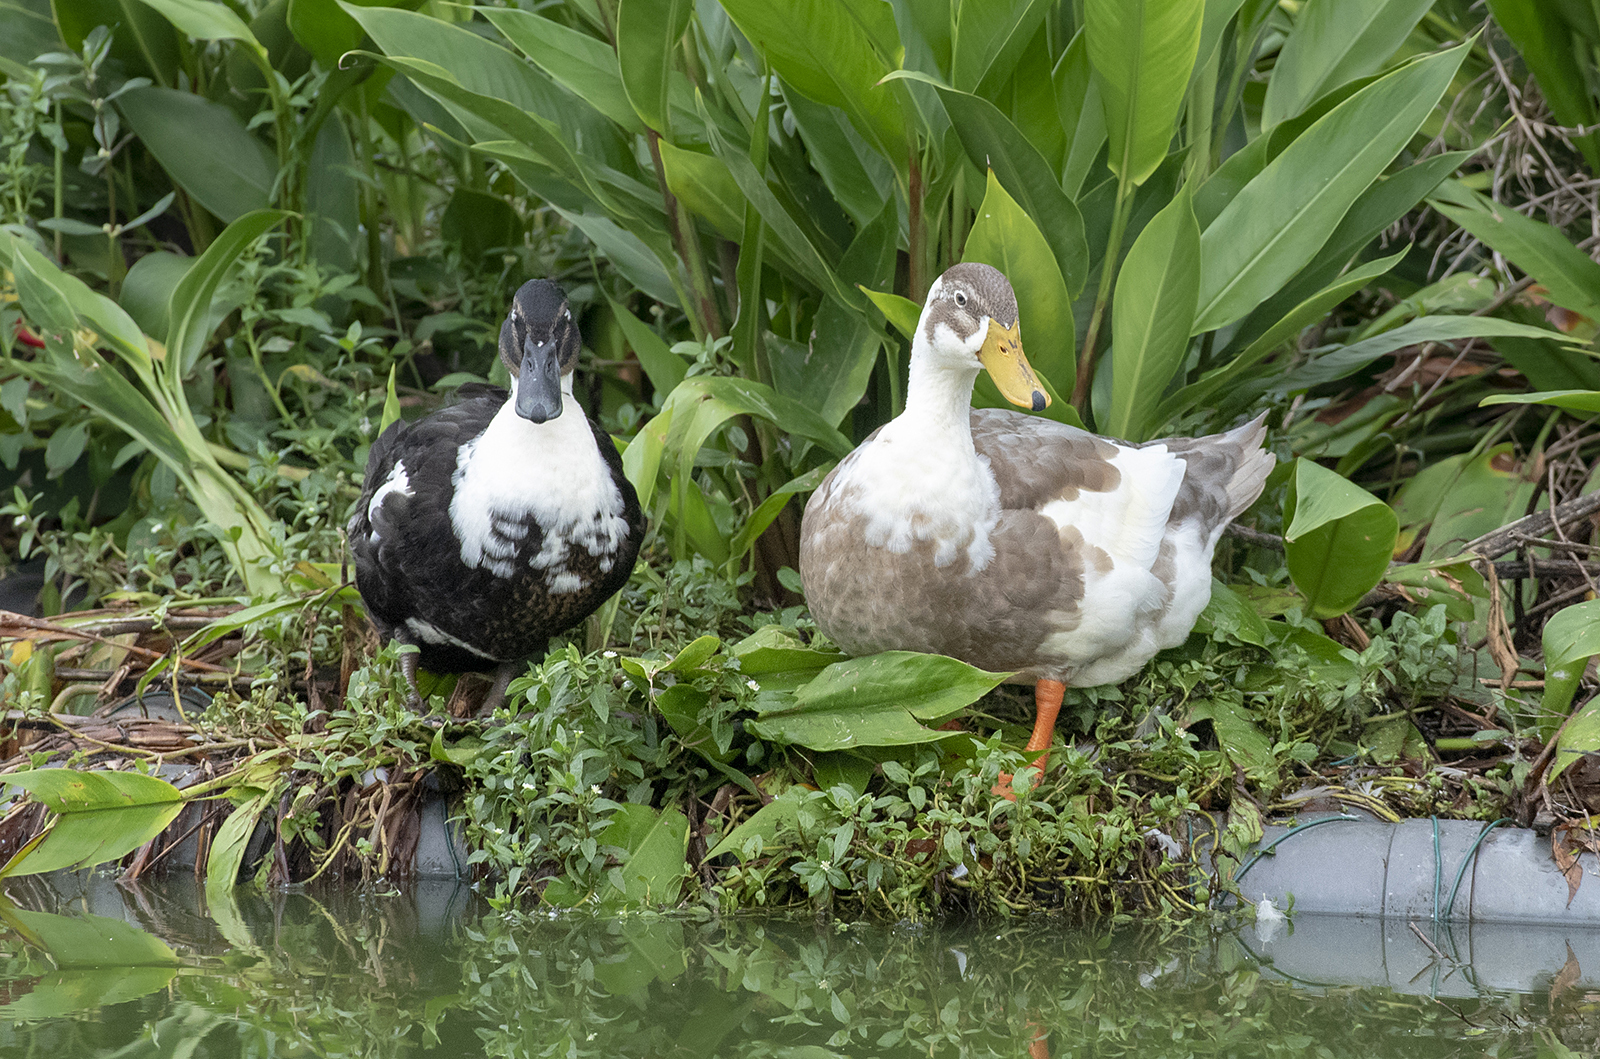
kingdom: Animalia
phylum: Chordata
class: Aves
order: Anseriformes
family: Anatidae
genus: Anas
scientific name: Anas platyrhynchos
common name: Mallard
